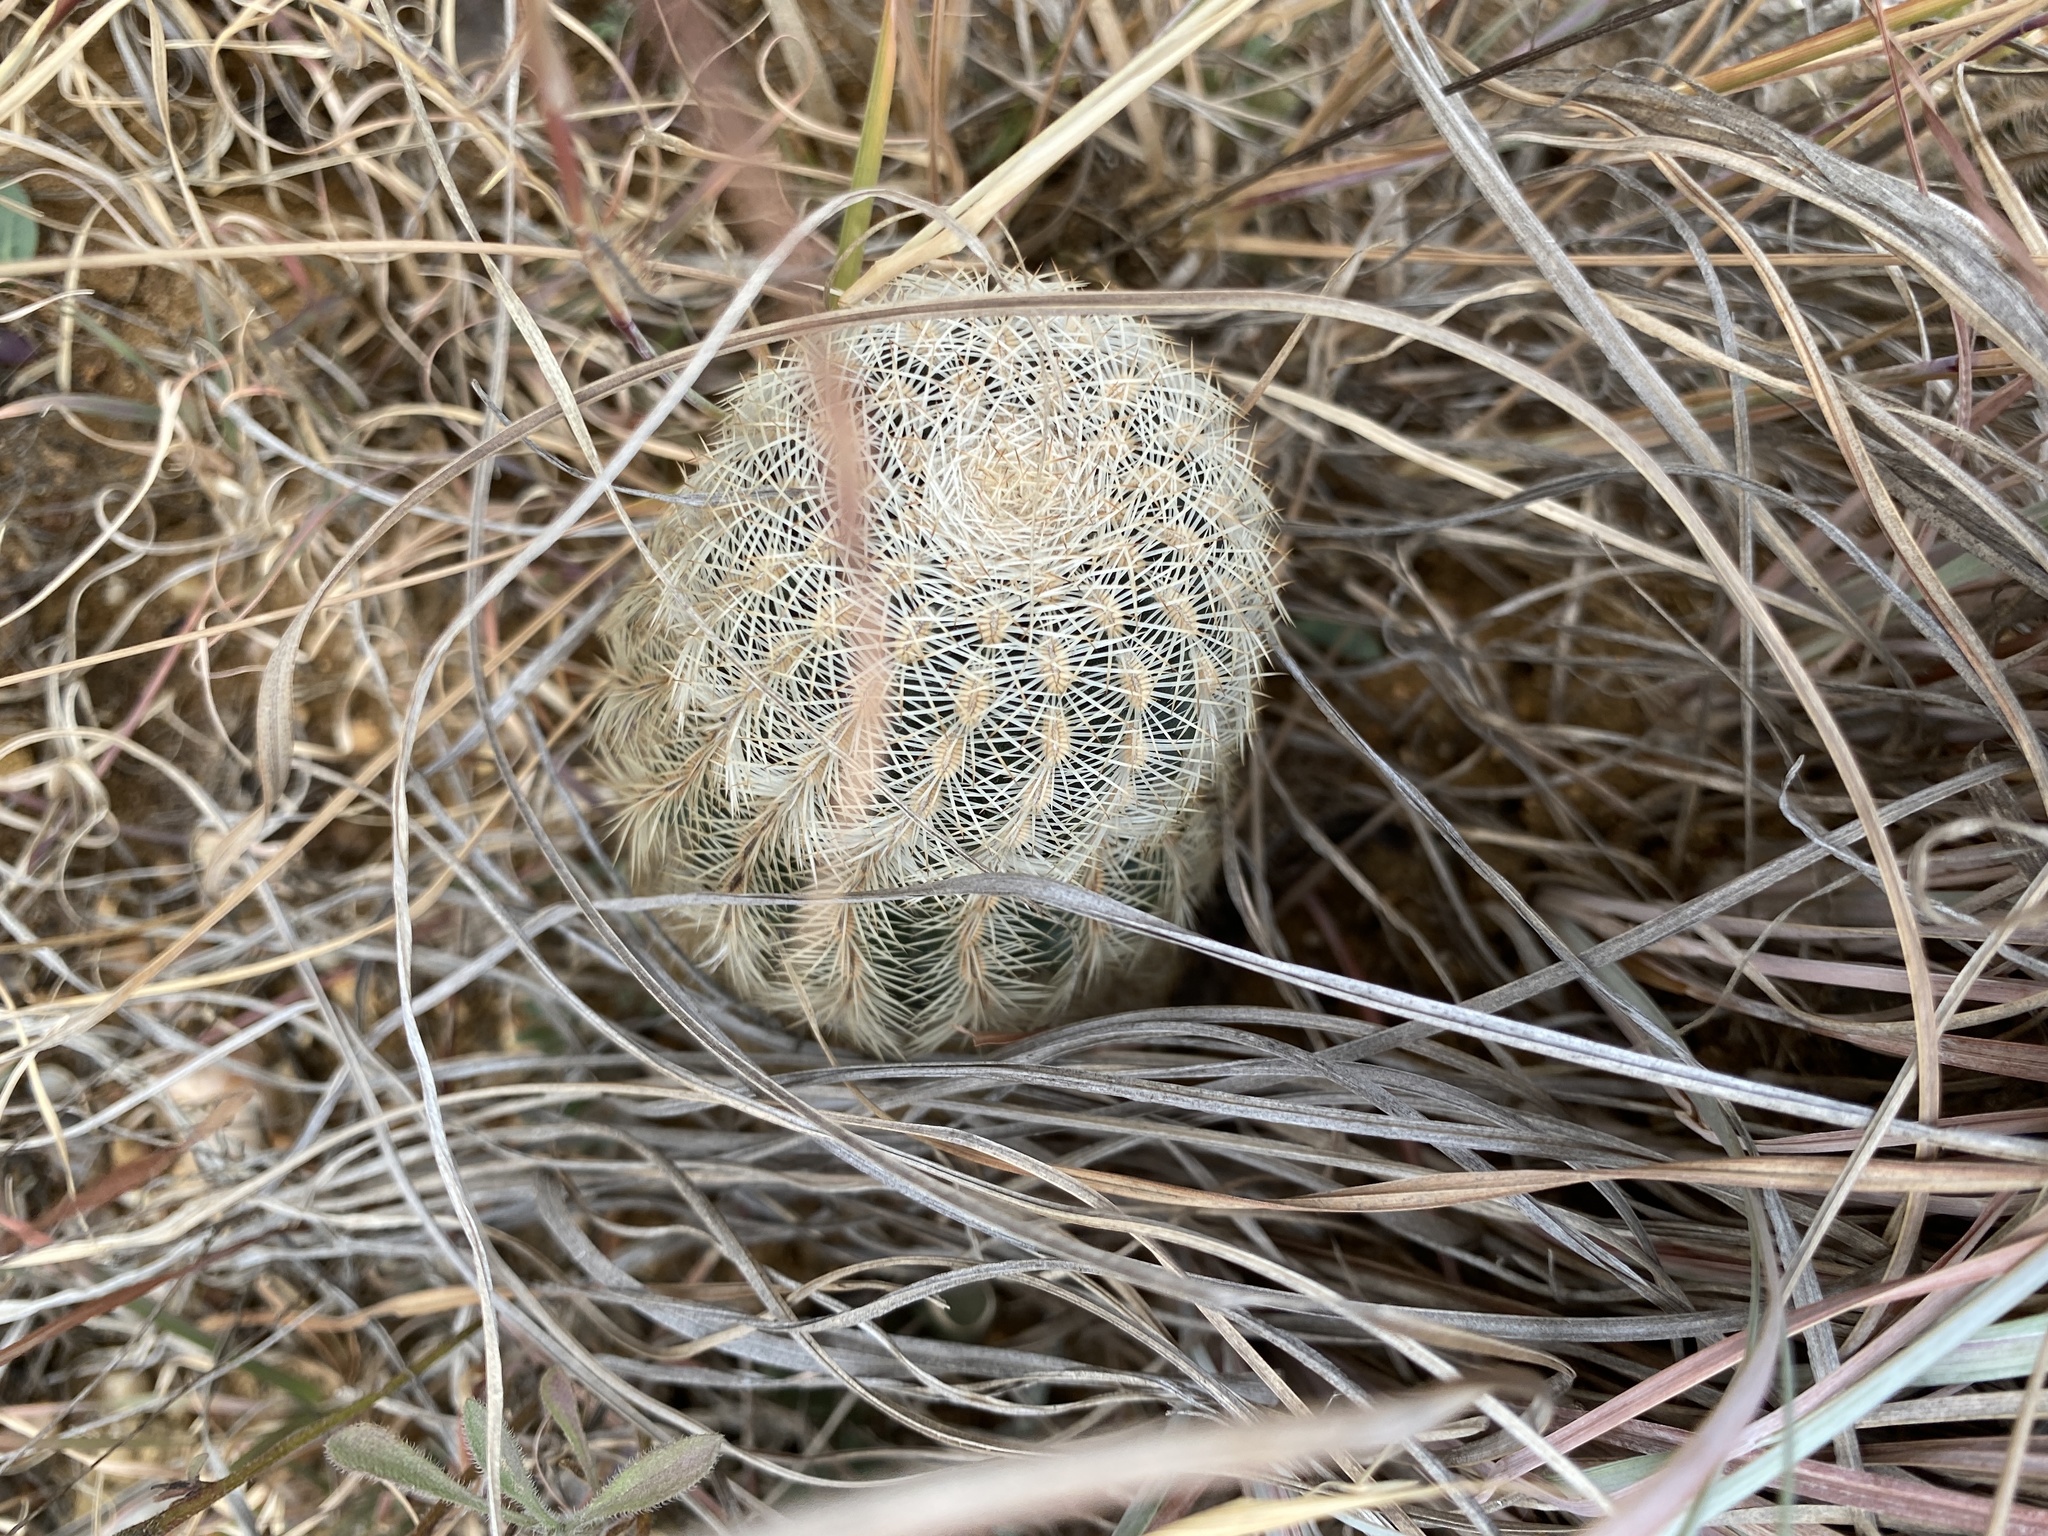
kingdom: Plantae
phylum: Tracheophyta
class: Magnoliopsida
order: Caryophyllales
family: Cactaceae
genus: Echinocereus
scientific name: Echinocereus reichenbachii
